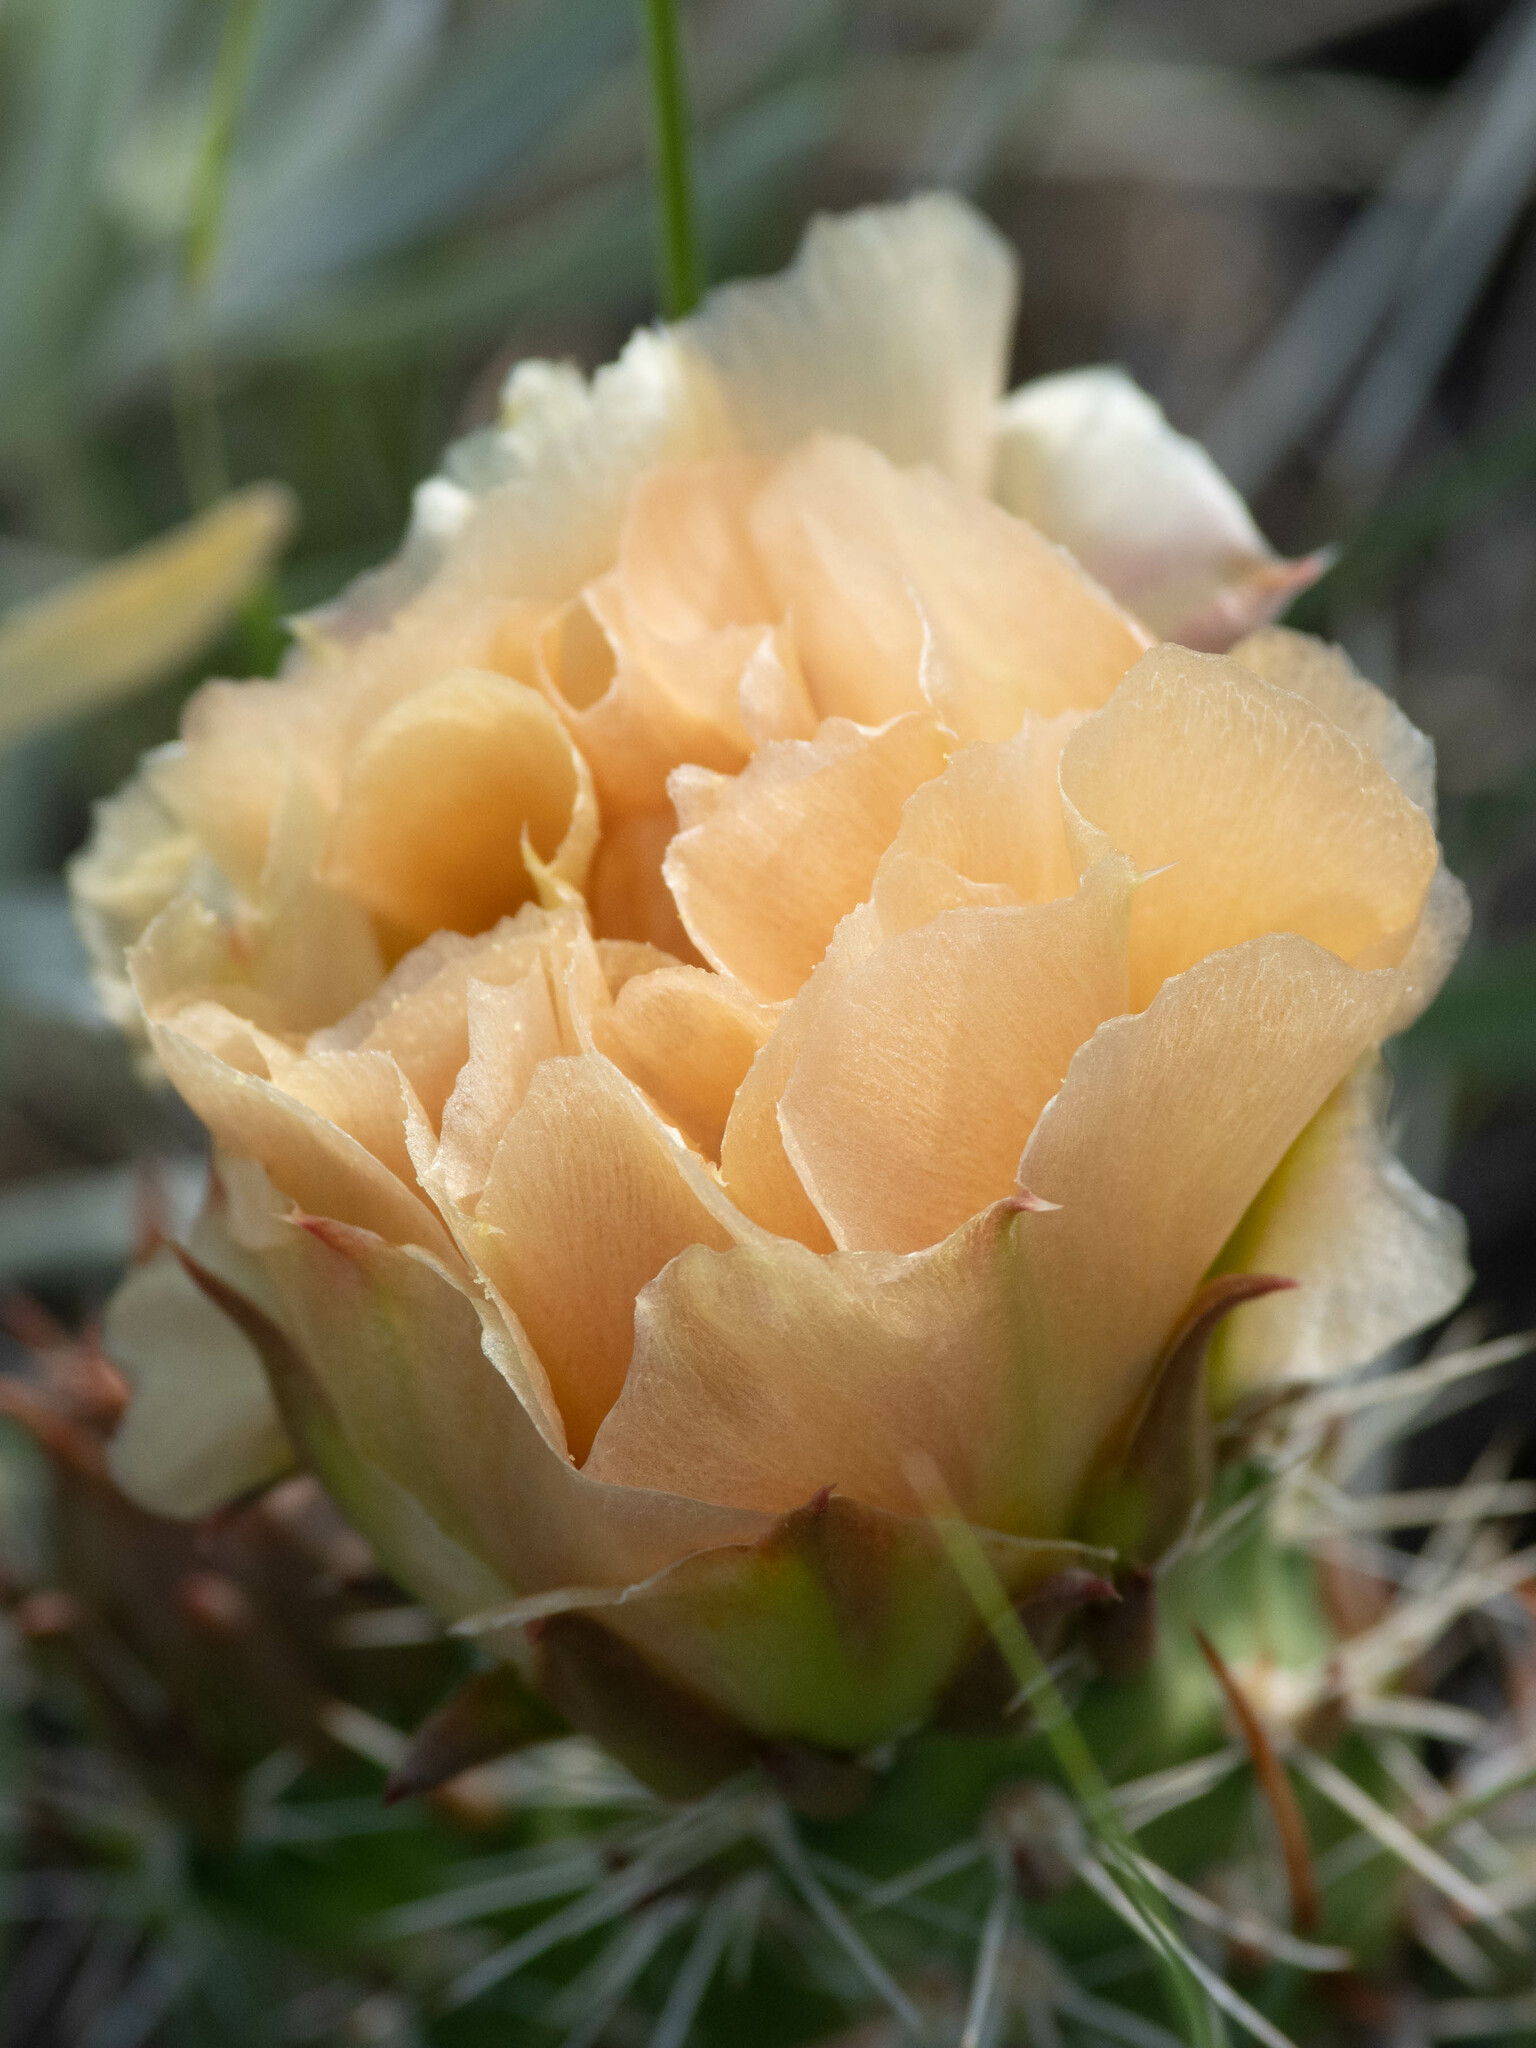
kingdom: Plantae
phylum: Tracheophyta
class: Magnoliopsida
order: Caryophyllales
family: Cactaceae
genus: Opuntia
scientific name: Opuntia polyacantha
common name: Plains prickly-pear
